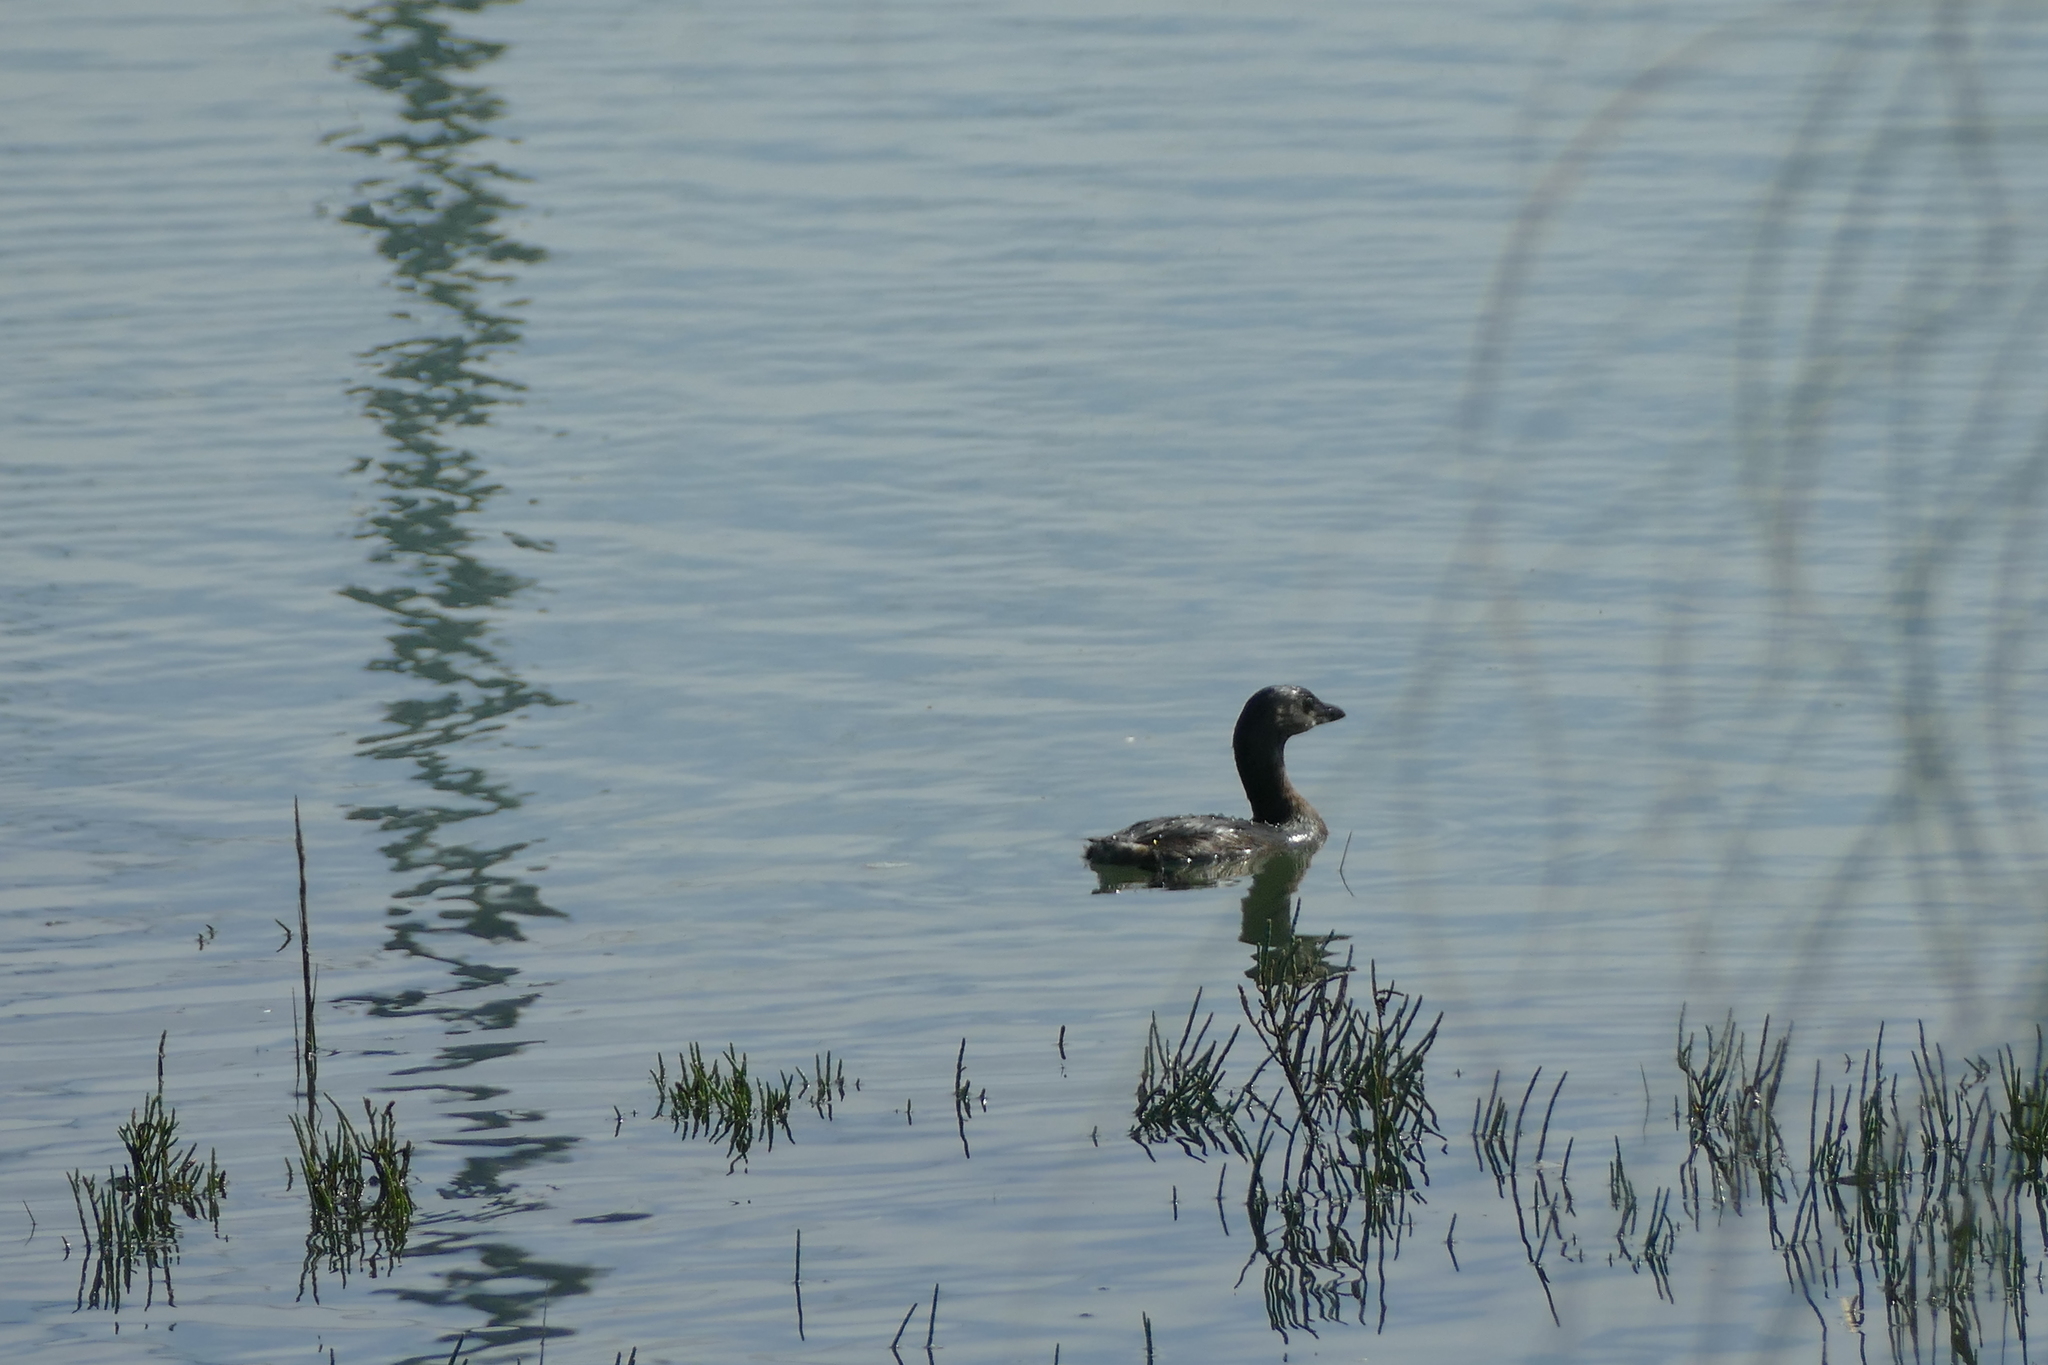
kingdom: Animalia
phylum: Chordata
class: Aves
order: Podicipediformes
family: Podicipedidae
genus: Podilymbus
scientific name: Podilymbus podiceps
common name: Pied-billed grebe
